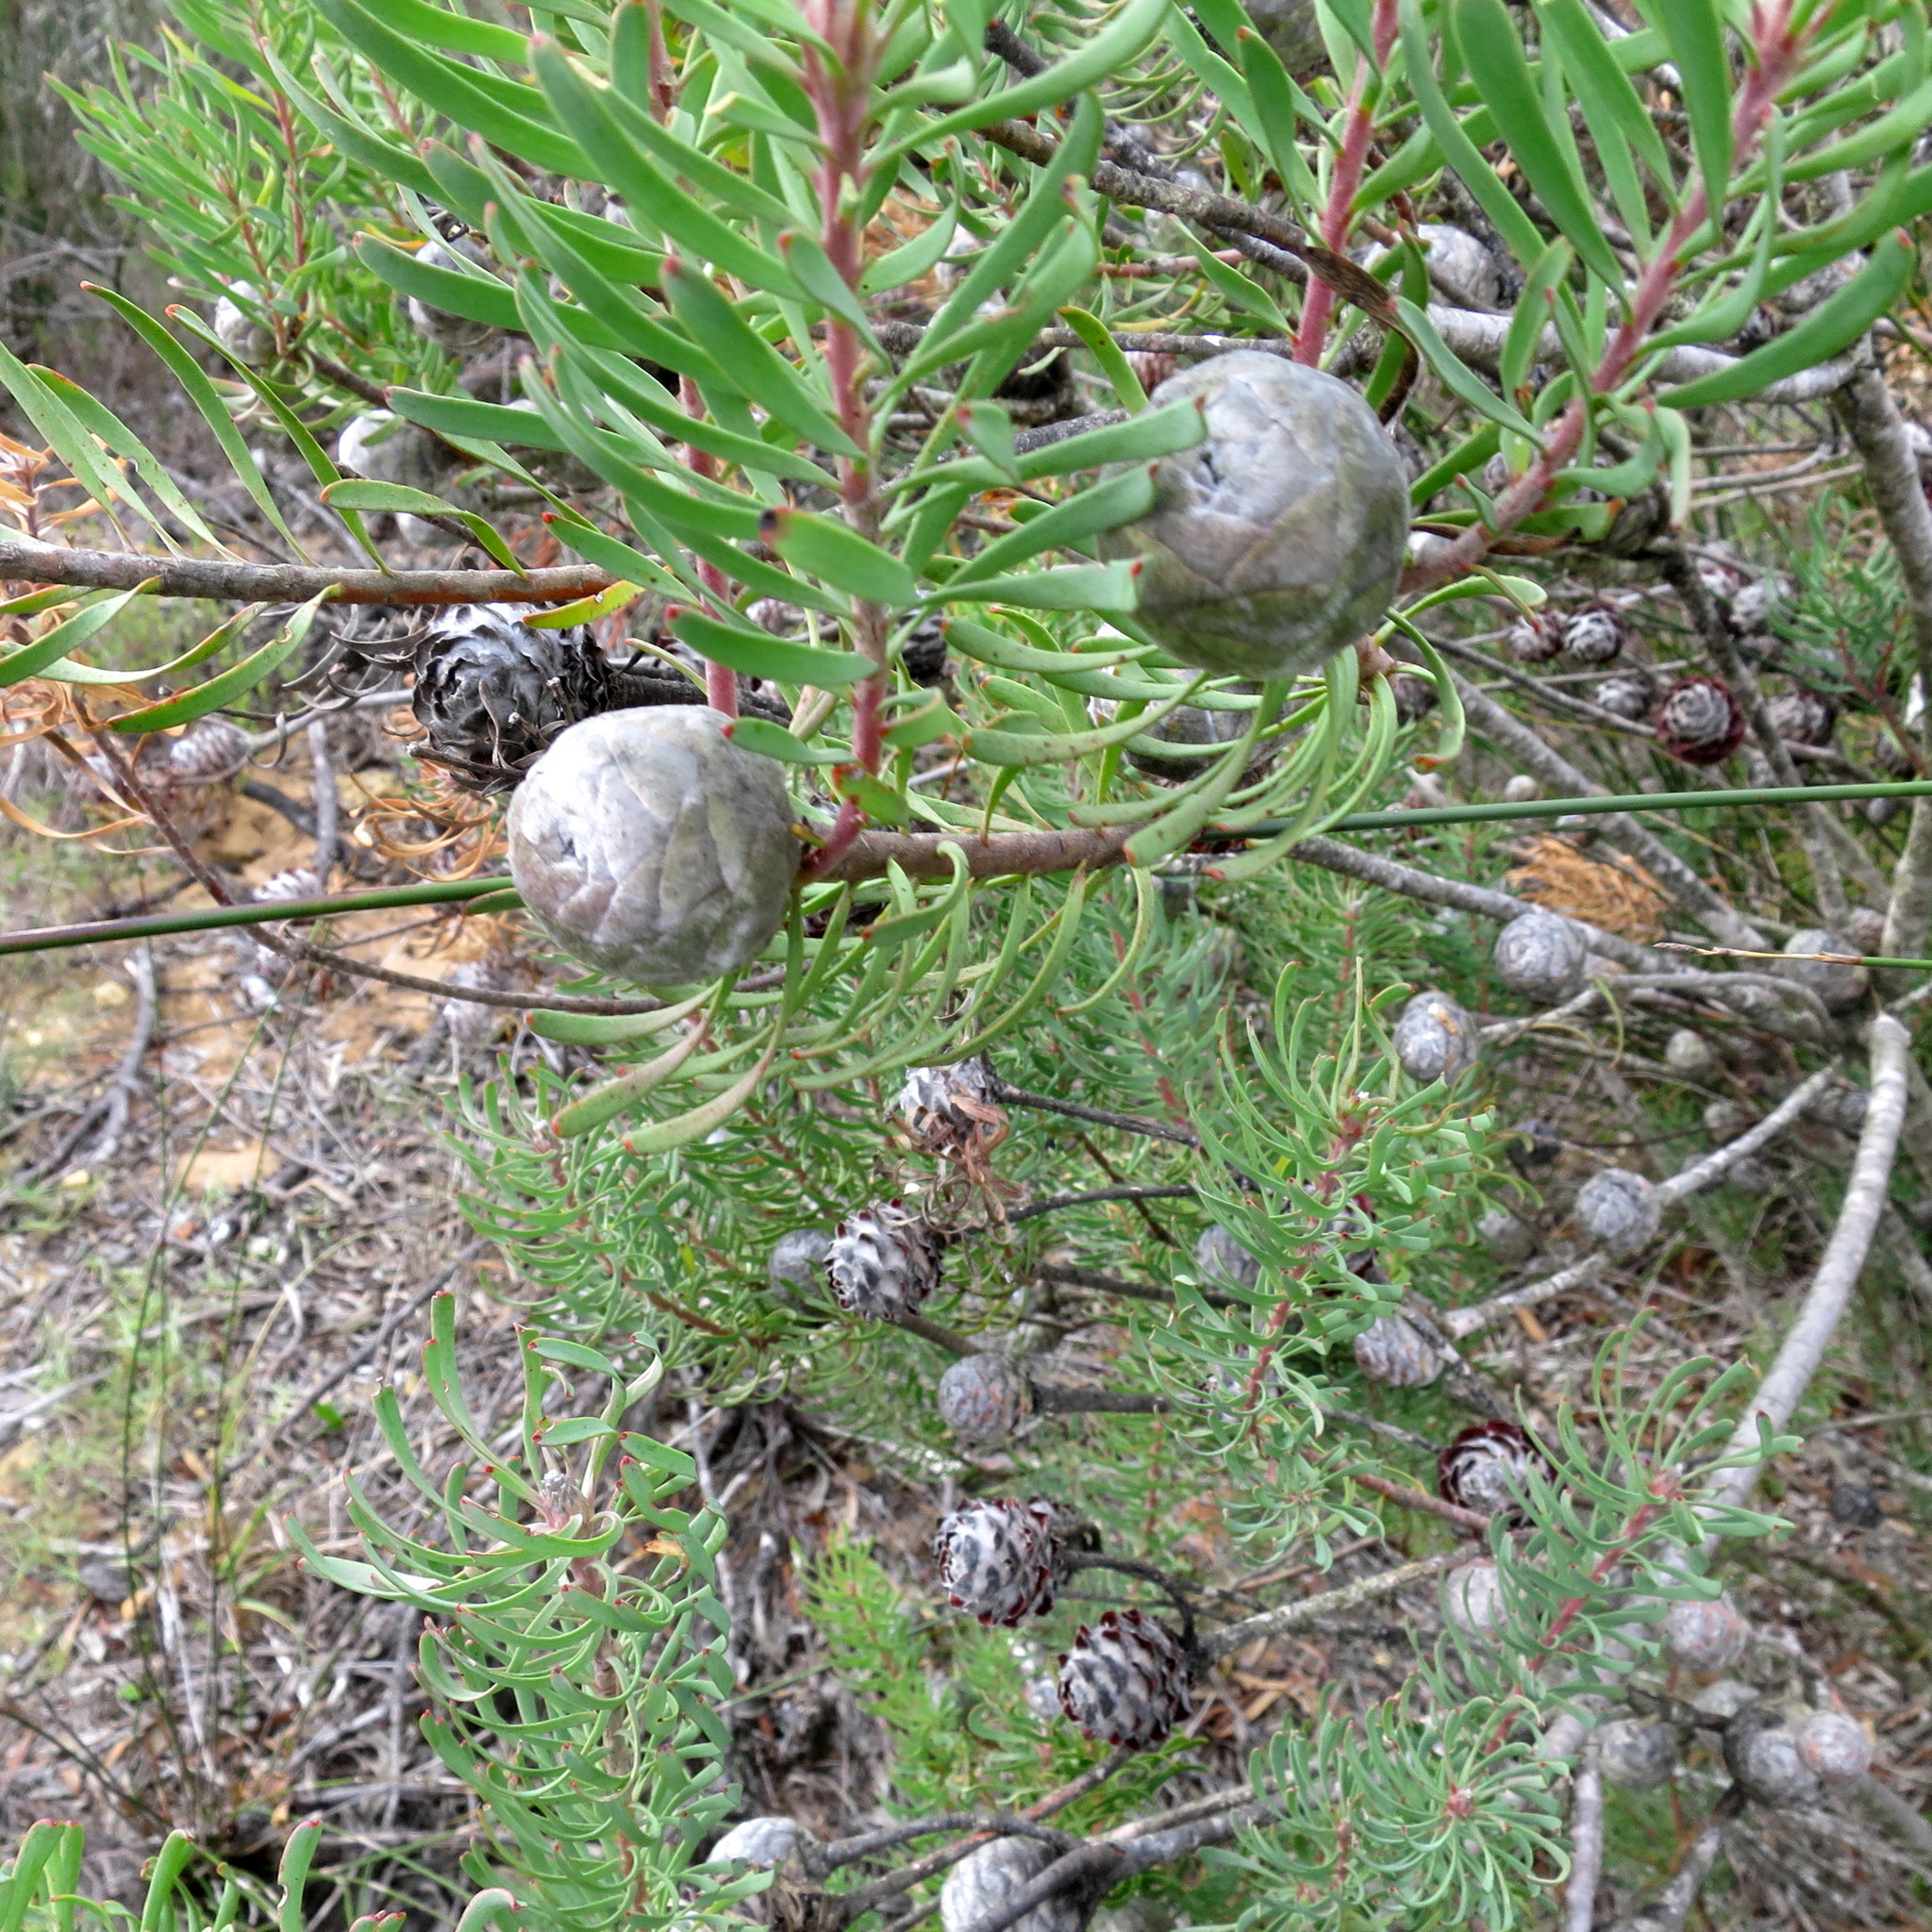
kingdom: Plantae
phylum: Tracheophyta
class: Magnoliopsida
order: Proteales
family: Proteaceae
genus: Leucadendron
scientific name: Leucadendron galpinii
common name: Hairless conebush
